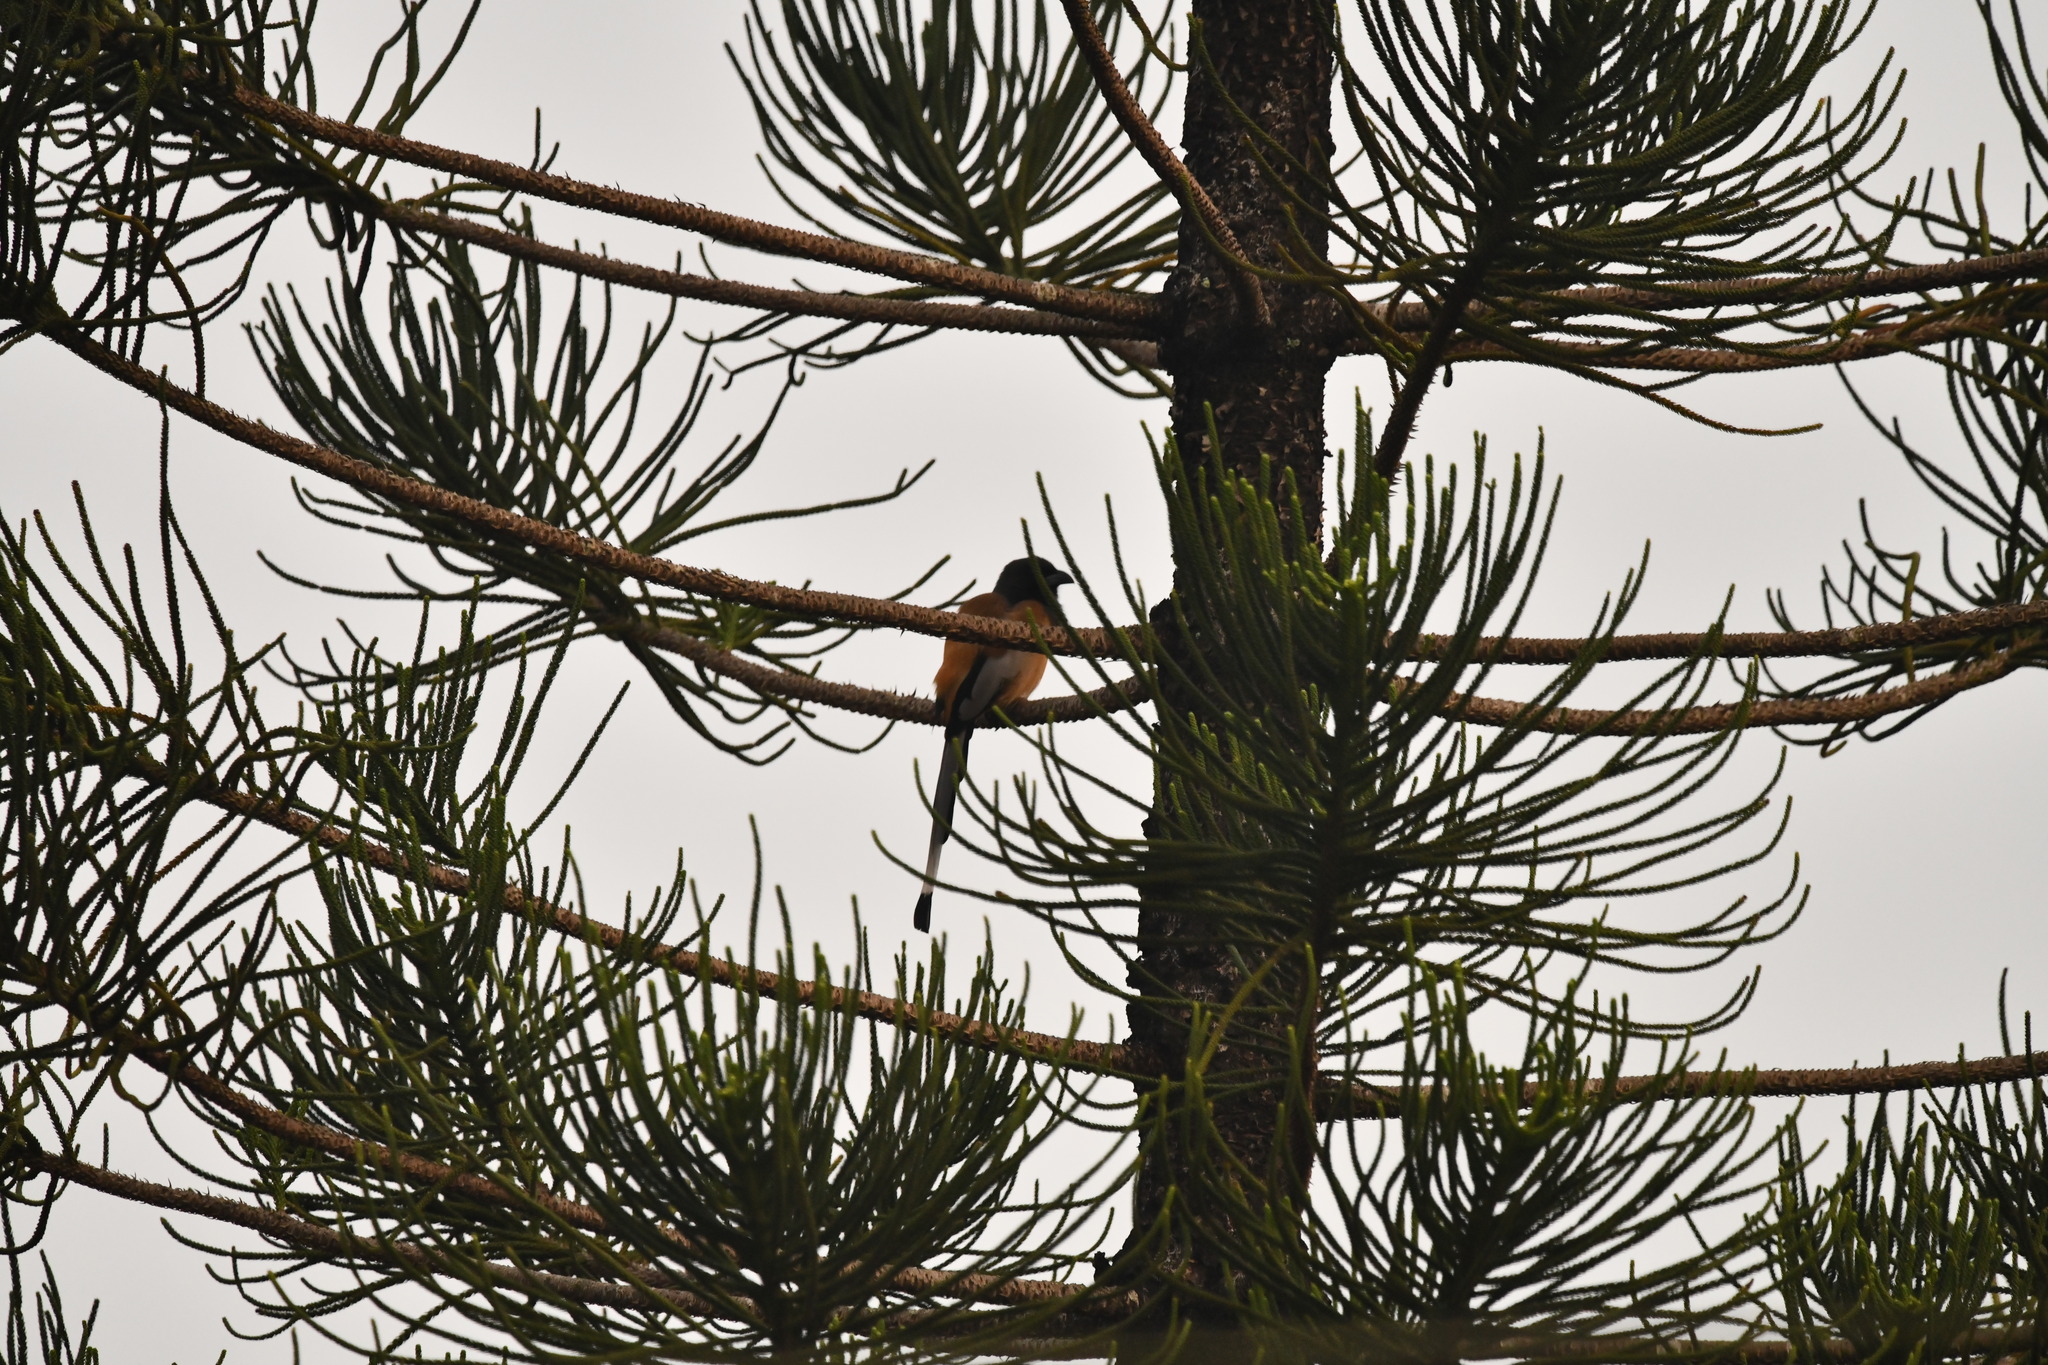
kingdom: Animalia
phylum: Chordata
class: Aves
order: Passeriformes
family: Corvidae
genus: Dendrocitta
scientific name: Dendrocitta vagabunda
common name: Rufous treepie
